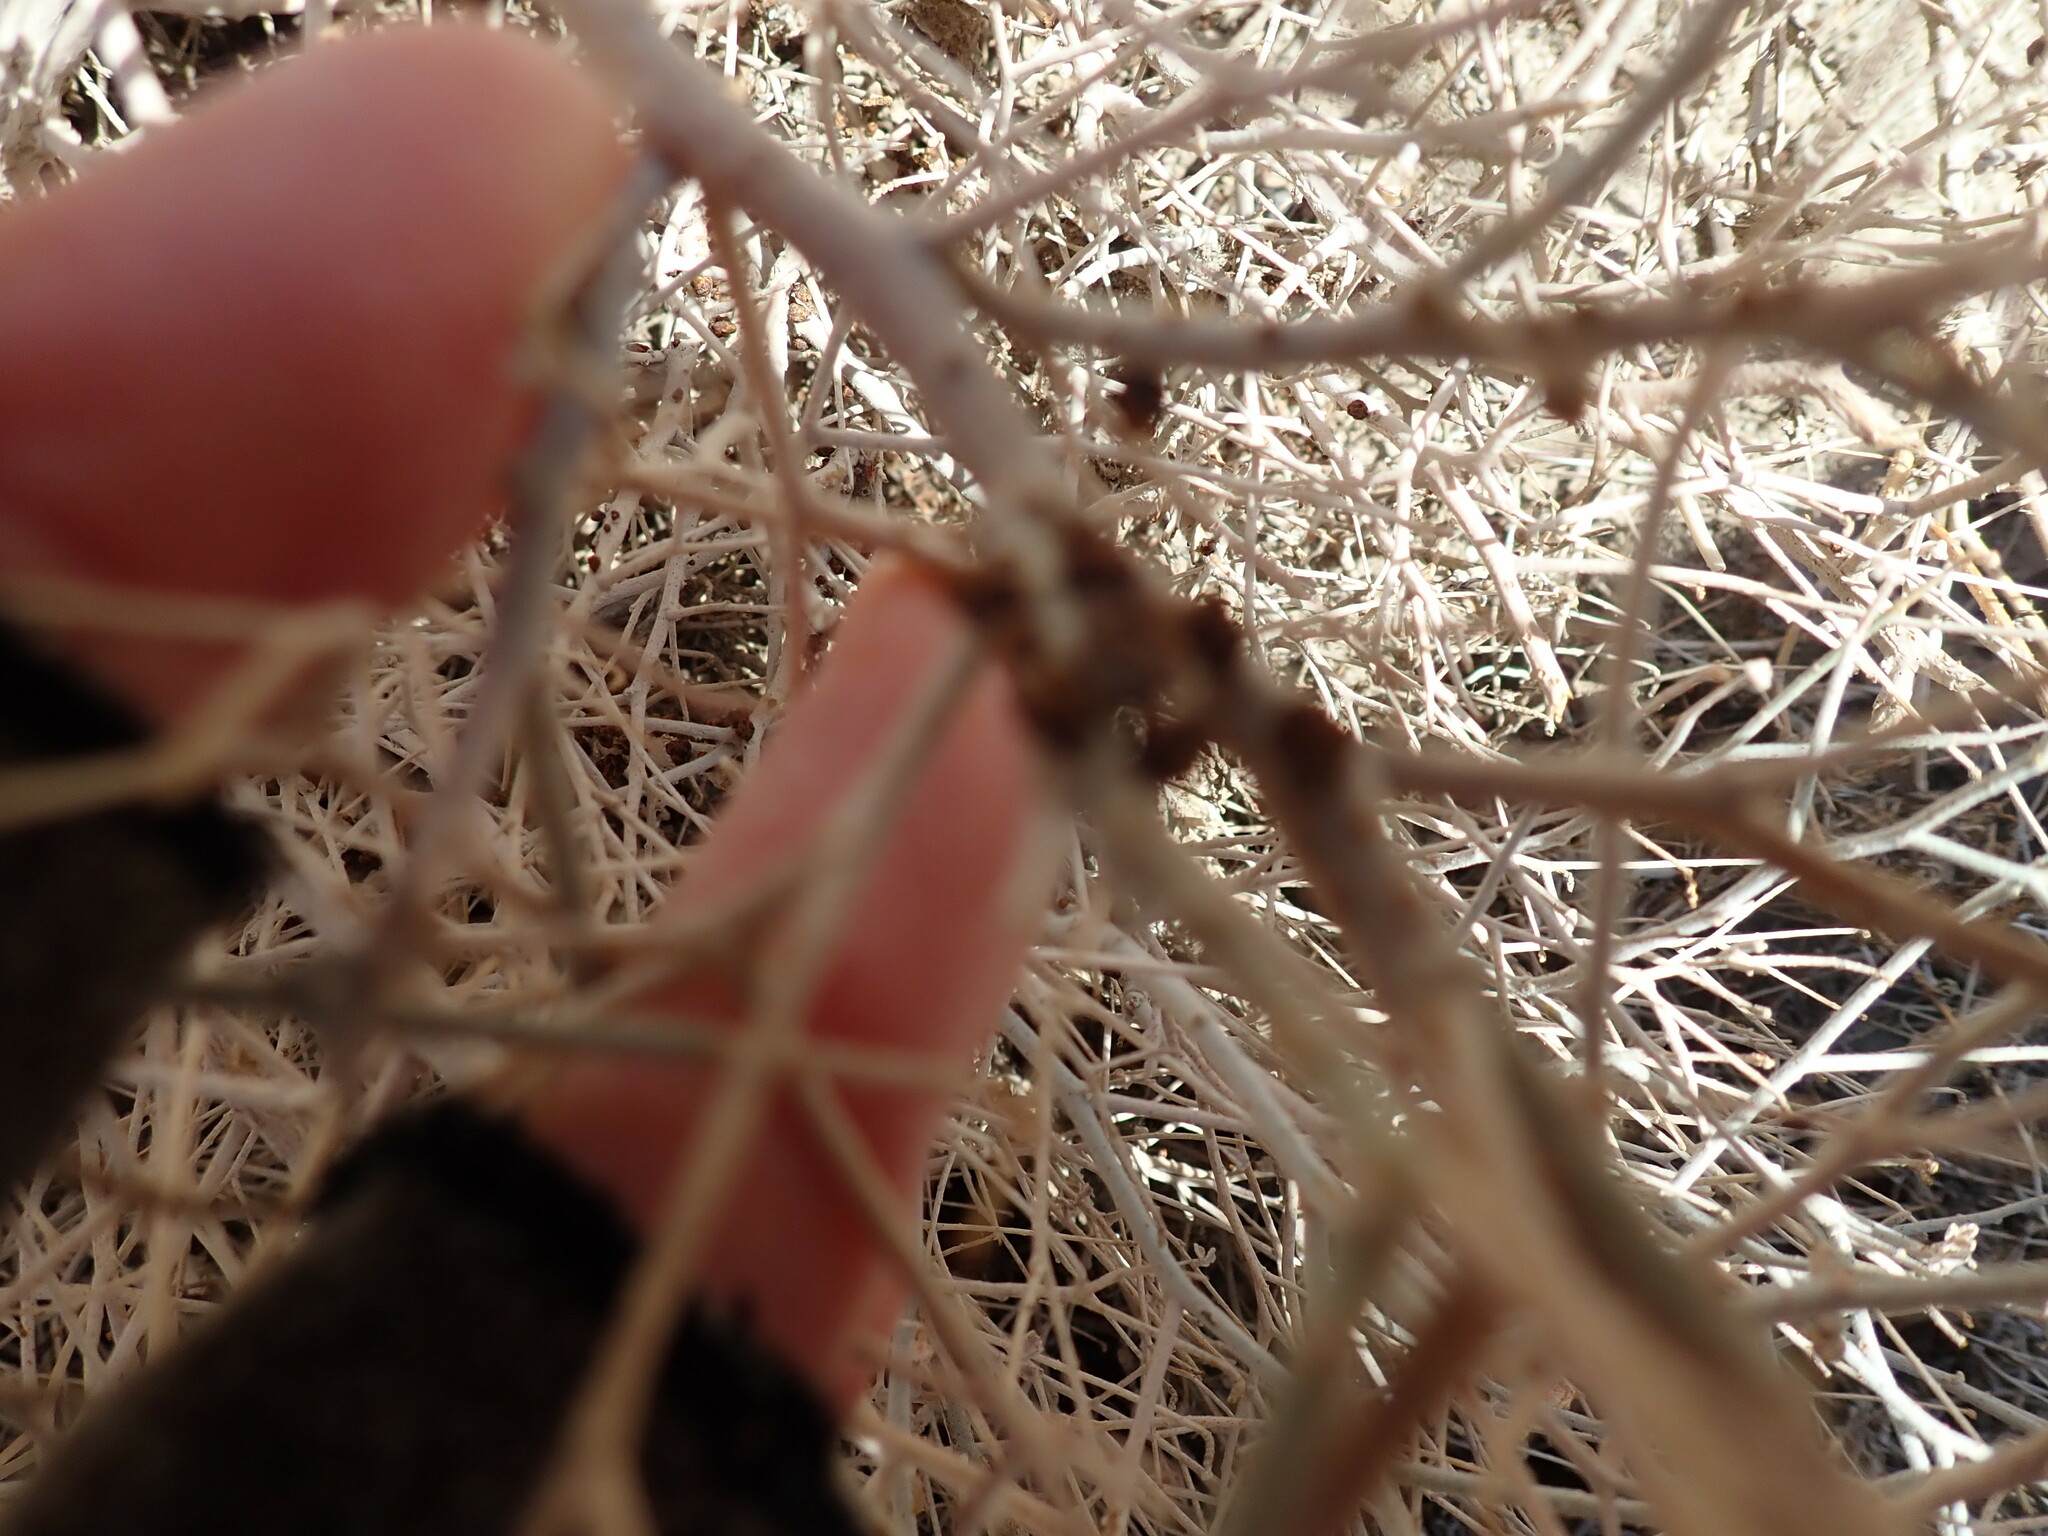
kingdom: Plantae
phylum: Tracheophyta
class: Magnoliopsida
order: Cucurbitales
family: Apodanthaceae
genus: Pilostyles
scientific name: Pilostyles thurberi
